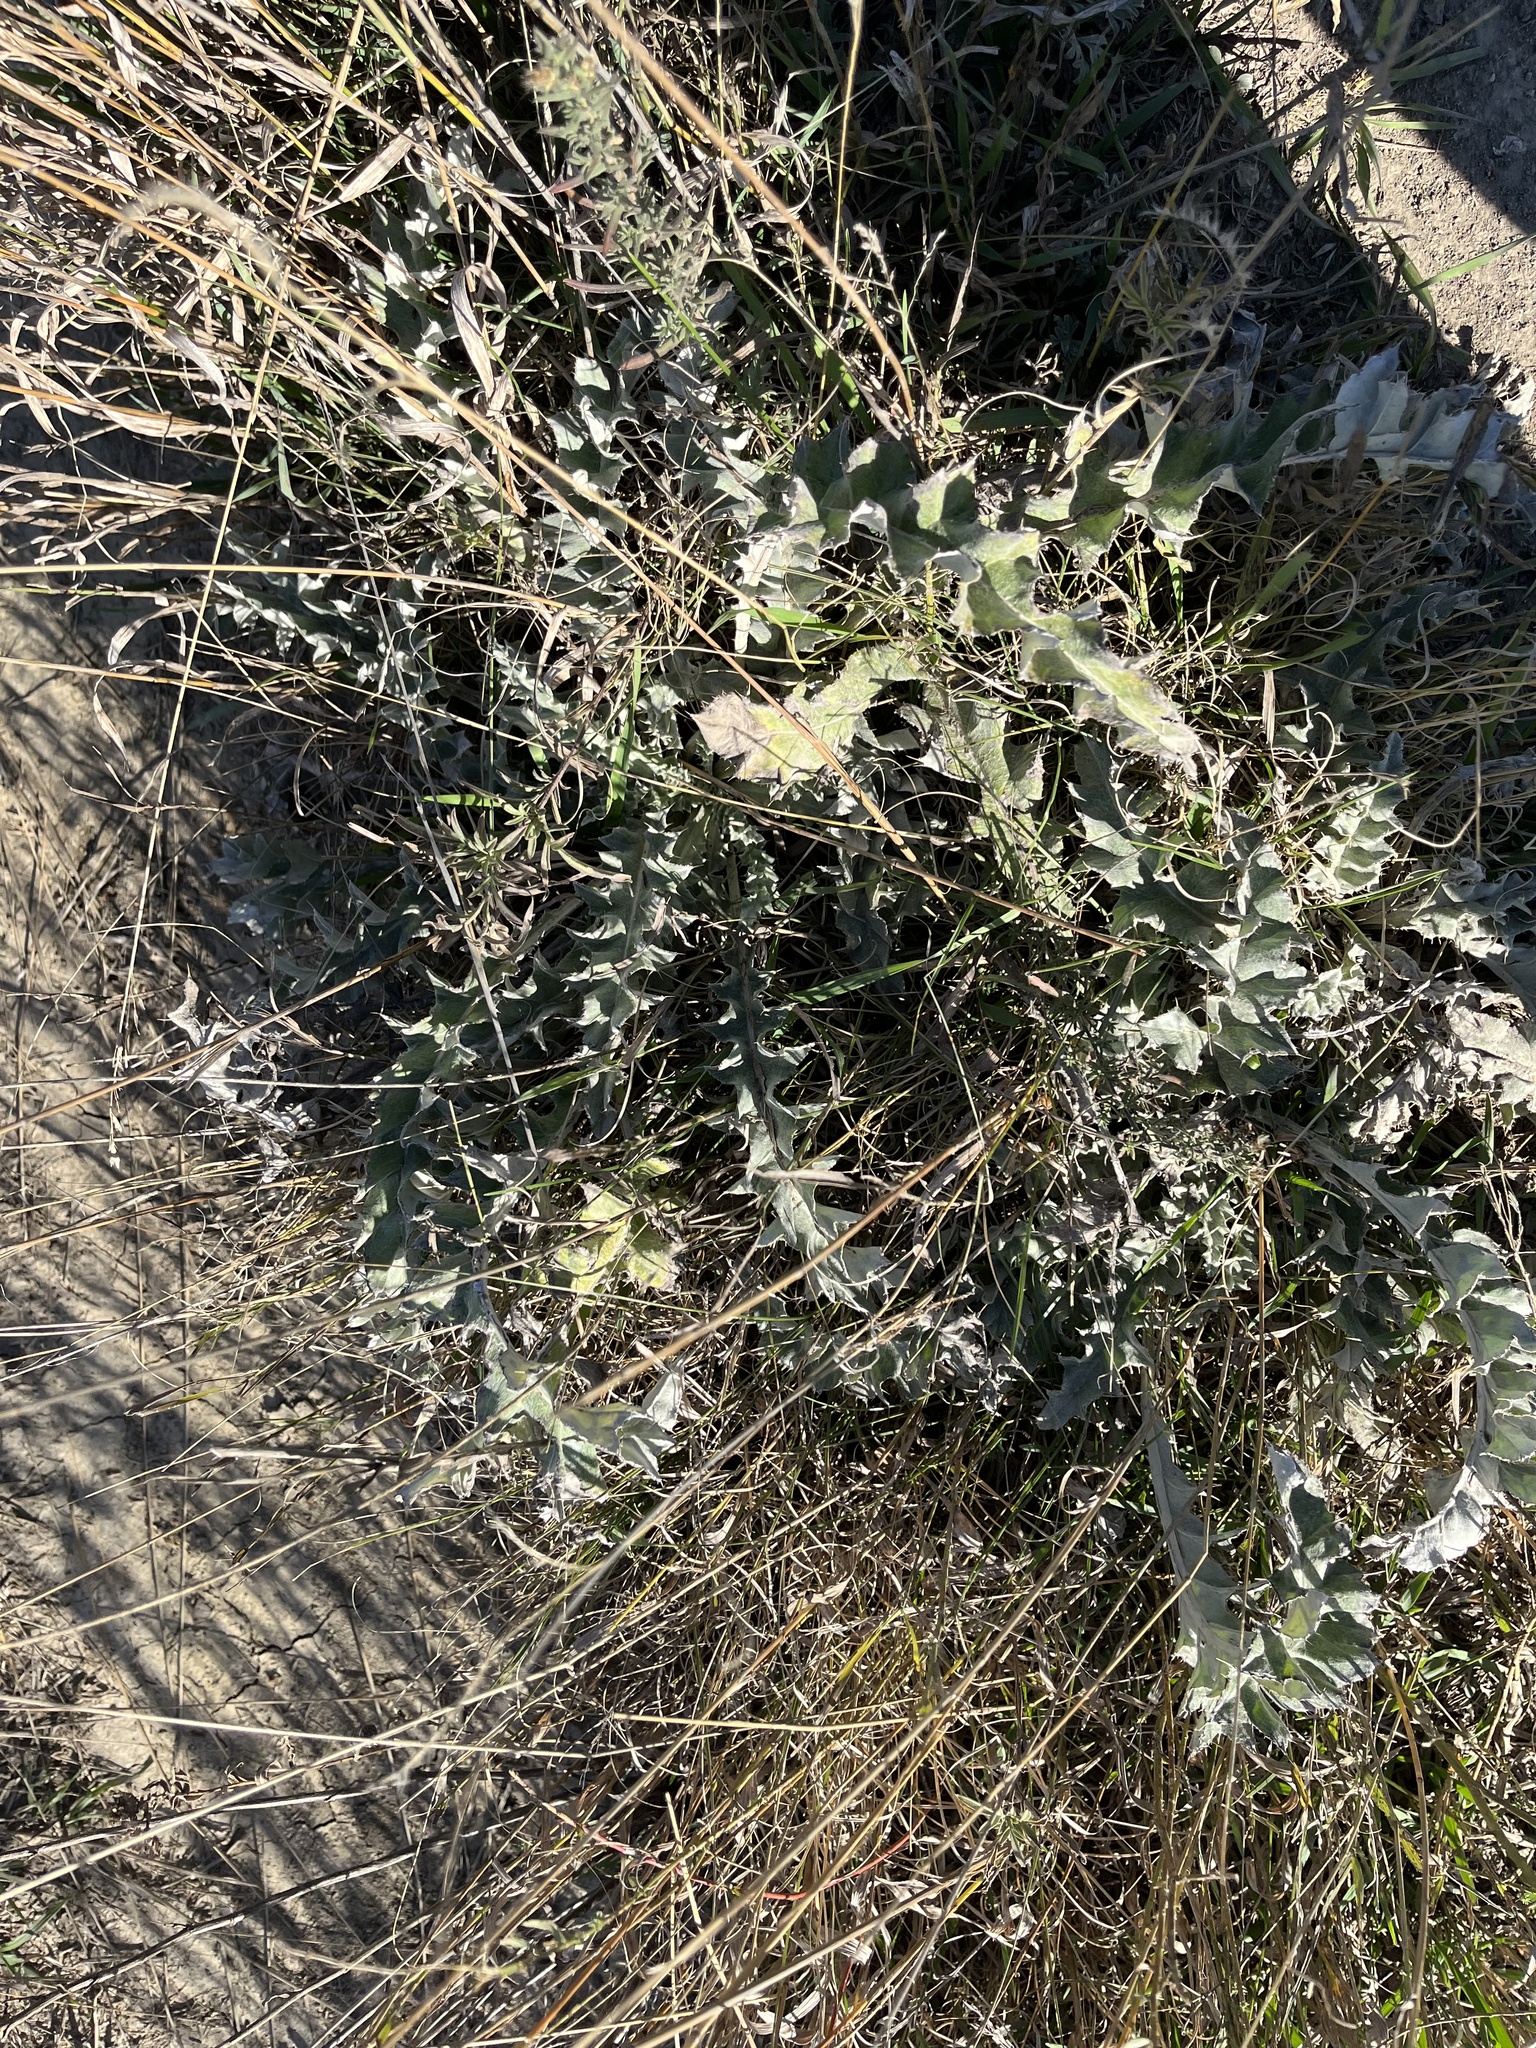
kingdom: Plantae
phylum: Tracheophyta
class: Magnoliopsida
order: Asterales
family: Asteraceae
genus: Cirsium
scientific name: Cirsium undulatum
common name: Pasture thistle
